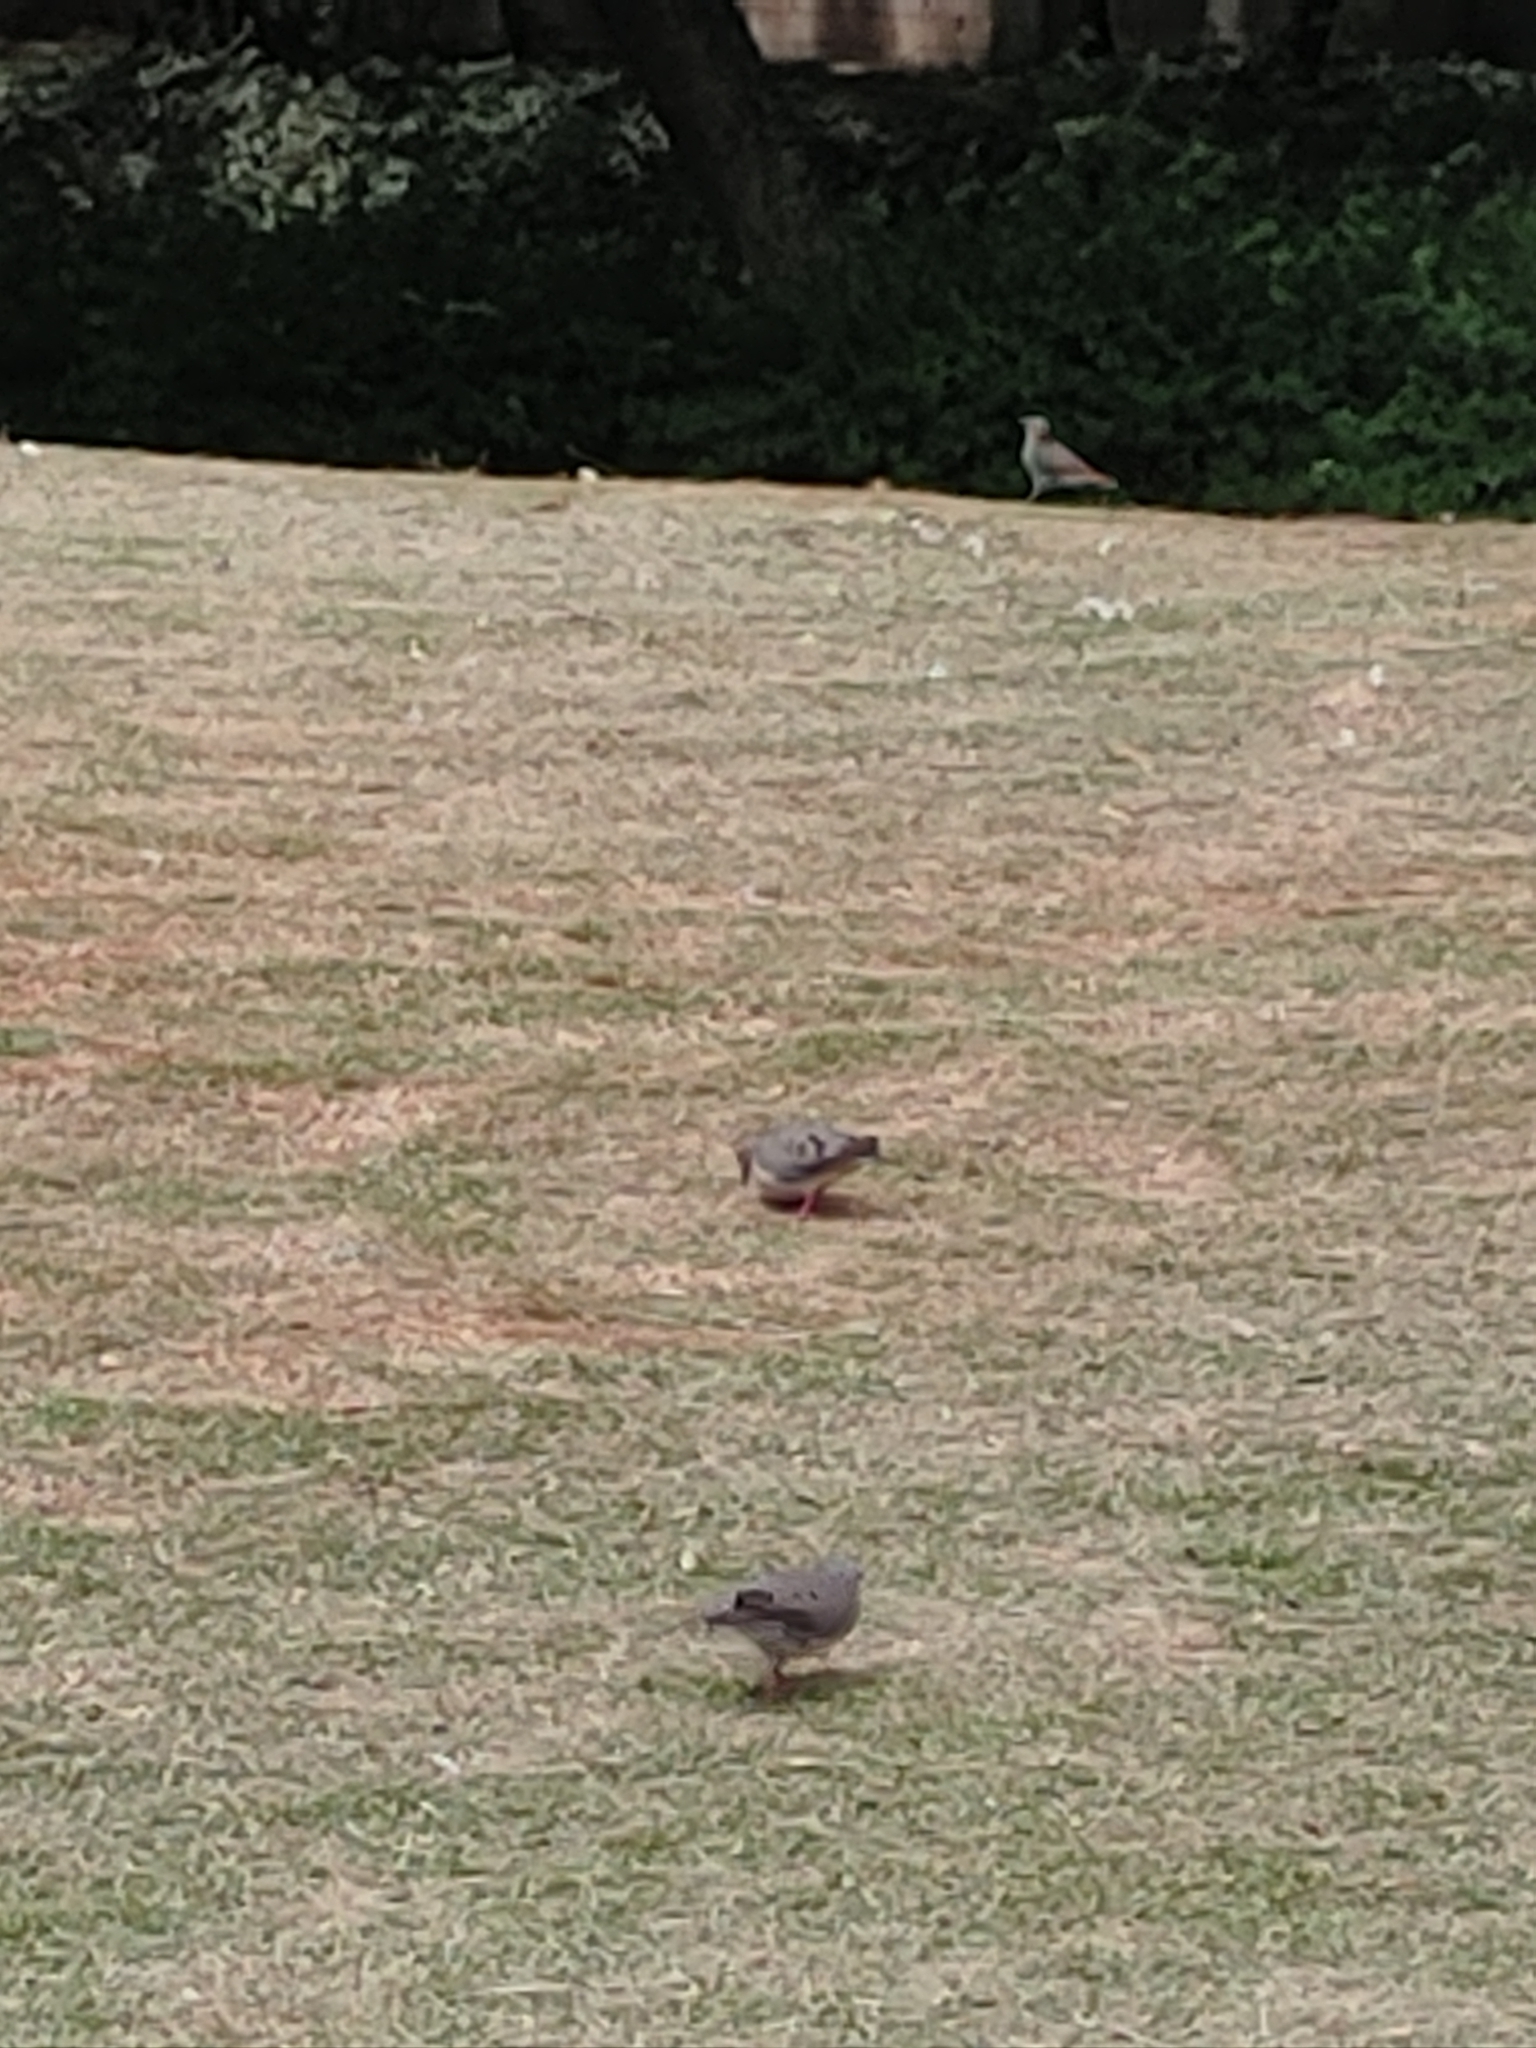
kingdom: Animalia
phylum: Chordata
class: Aves
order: Columbiformes
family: Columbidae
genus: Zenaida
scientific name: Zenaida auriculata
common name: Eared dove
